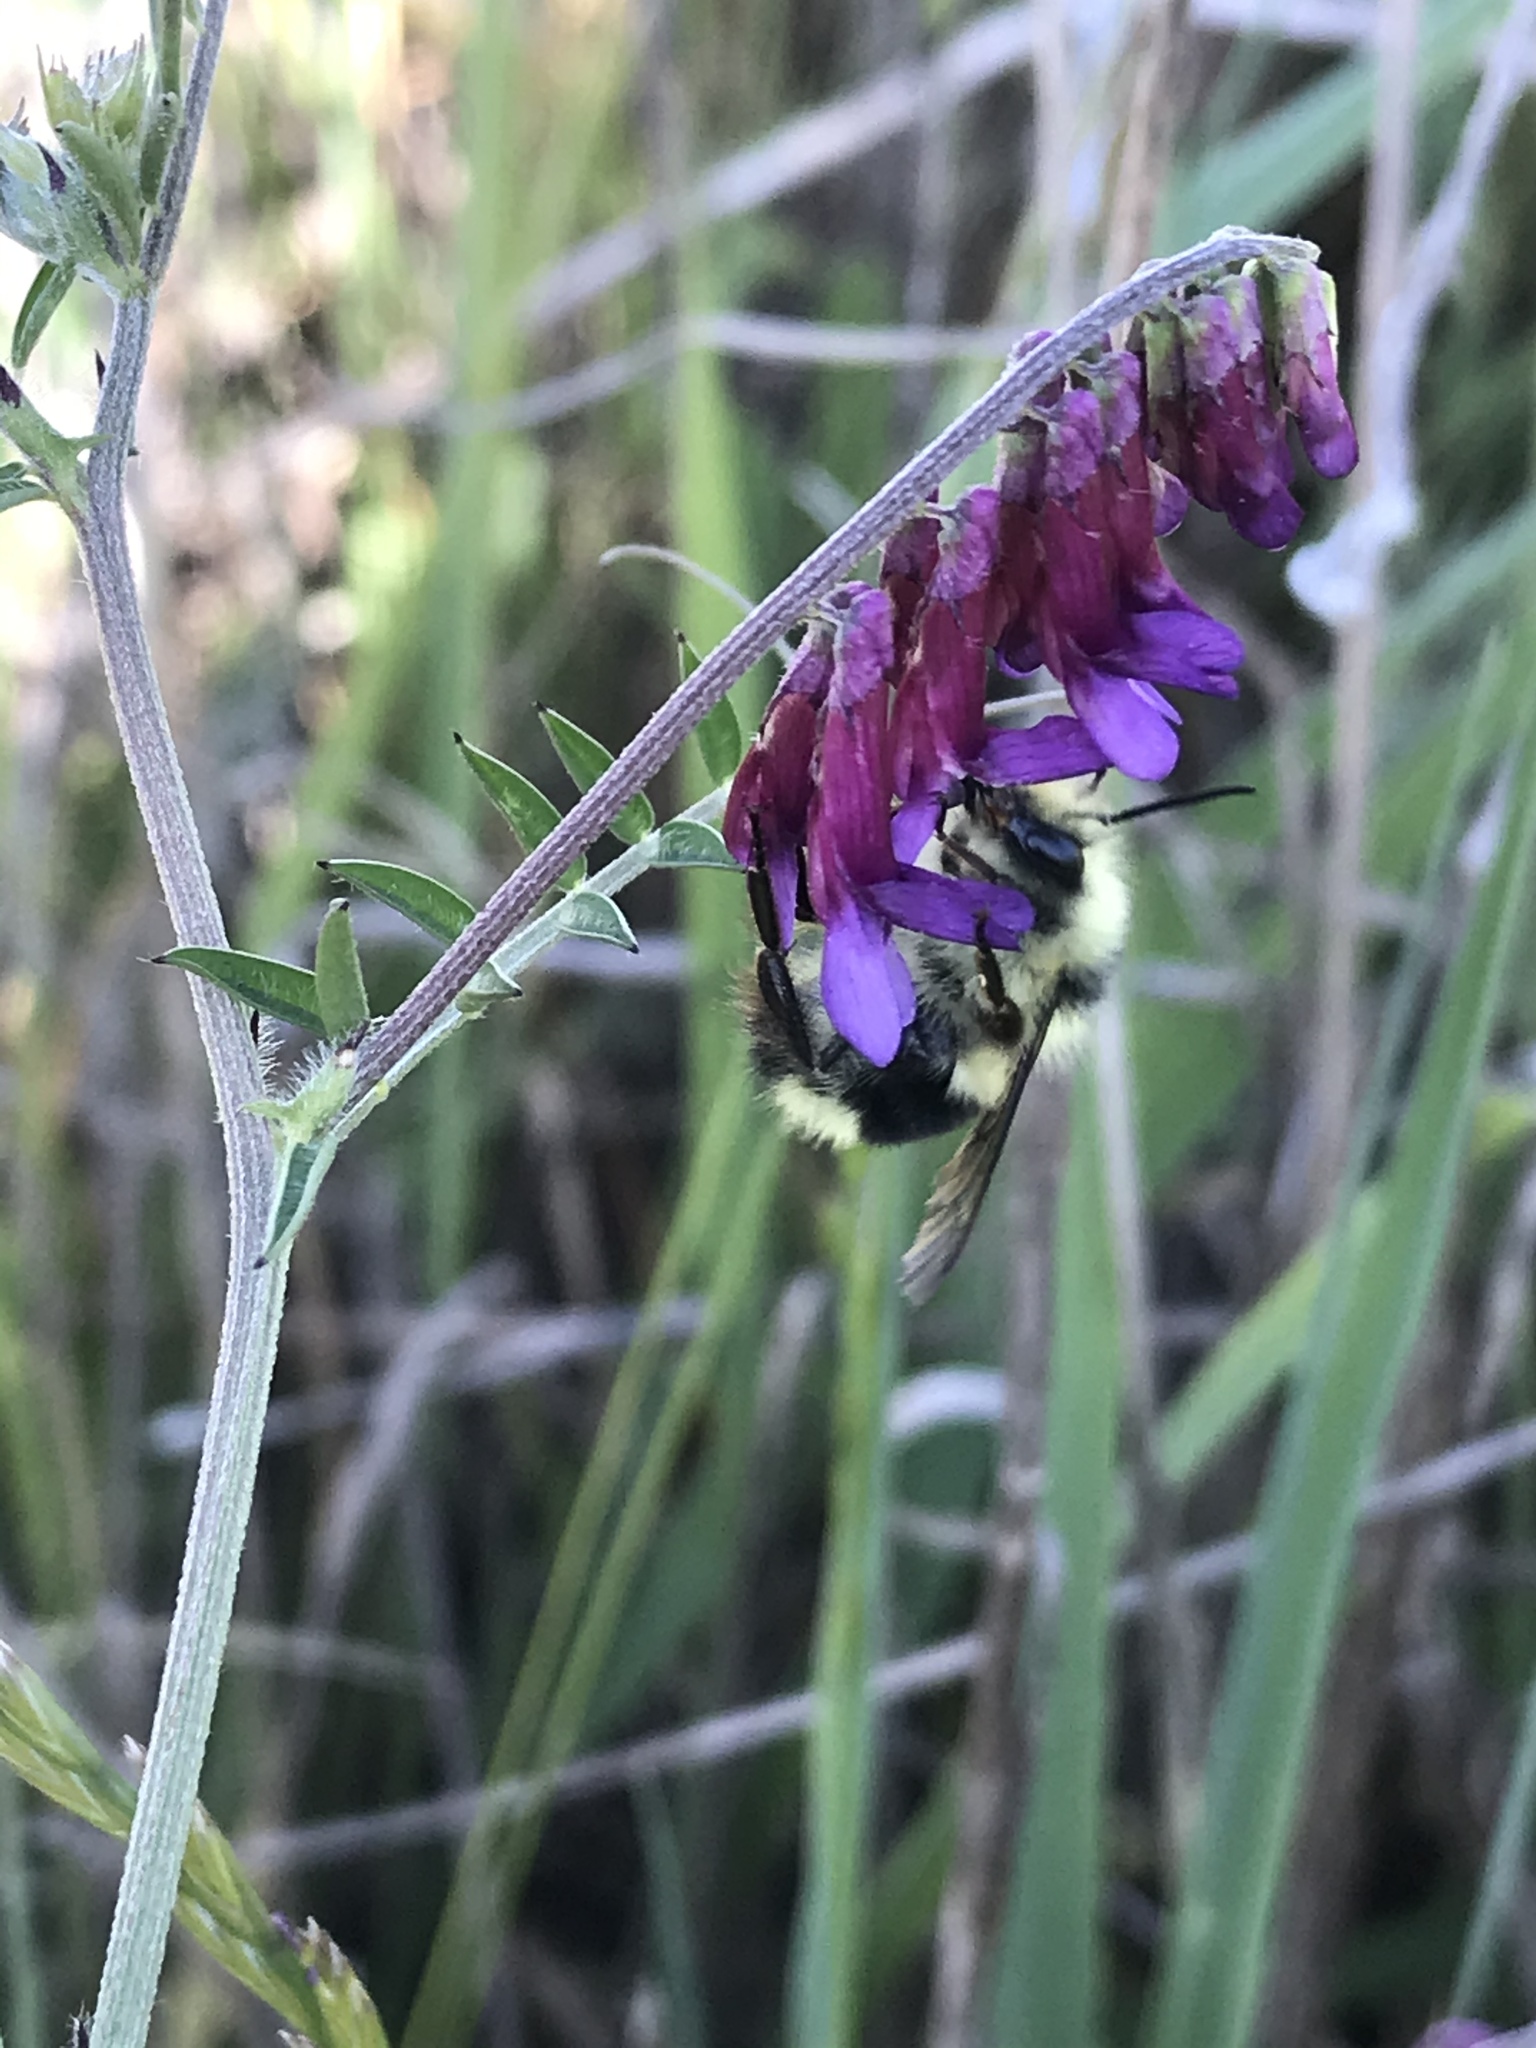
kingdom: Animalia
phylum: Arthropoda
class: Insecta
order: Hymenoptera
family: Apidae
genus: Bombus
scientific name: Bombus melanopygus
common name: Black tail bumble bee
